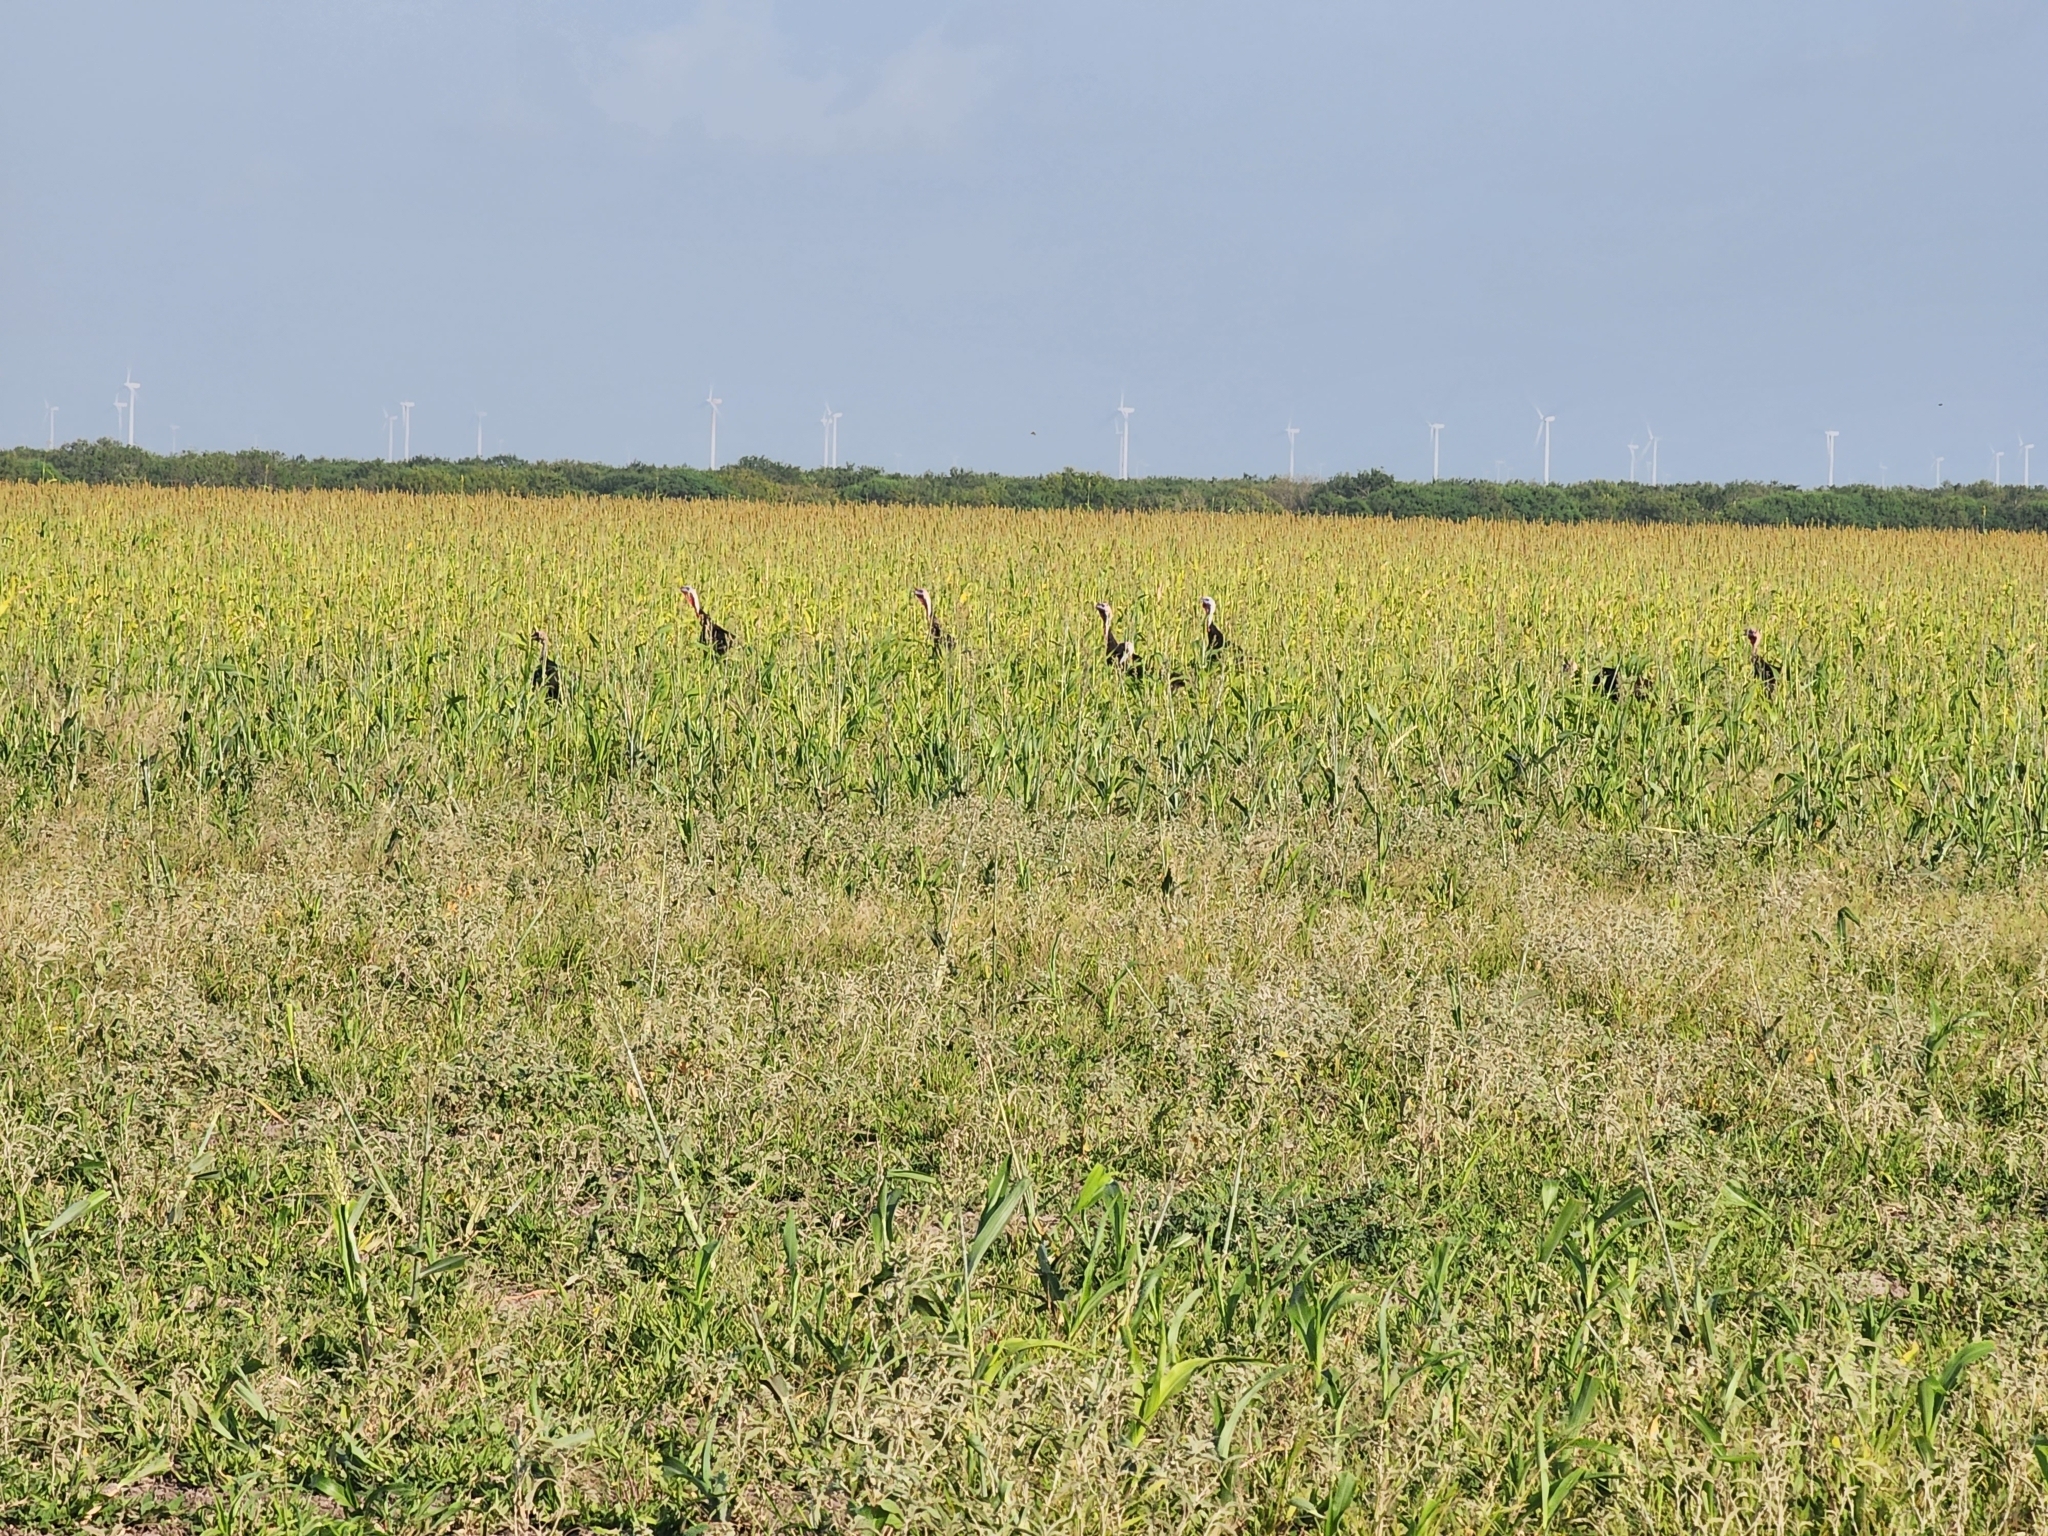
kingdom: Animalia
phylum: Chordata
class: Aves
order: Galliformes
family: Phasianidae
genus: Meleagris
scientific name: Meleagris gallopavo
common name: Wild turkey
